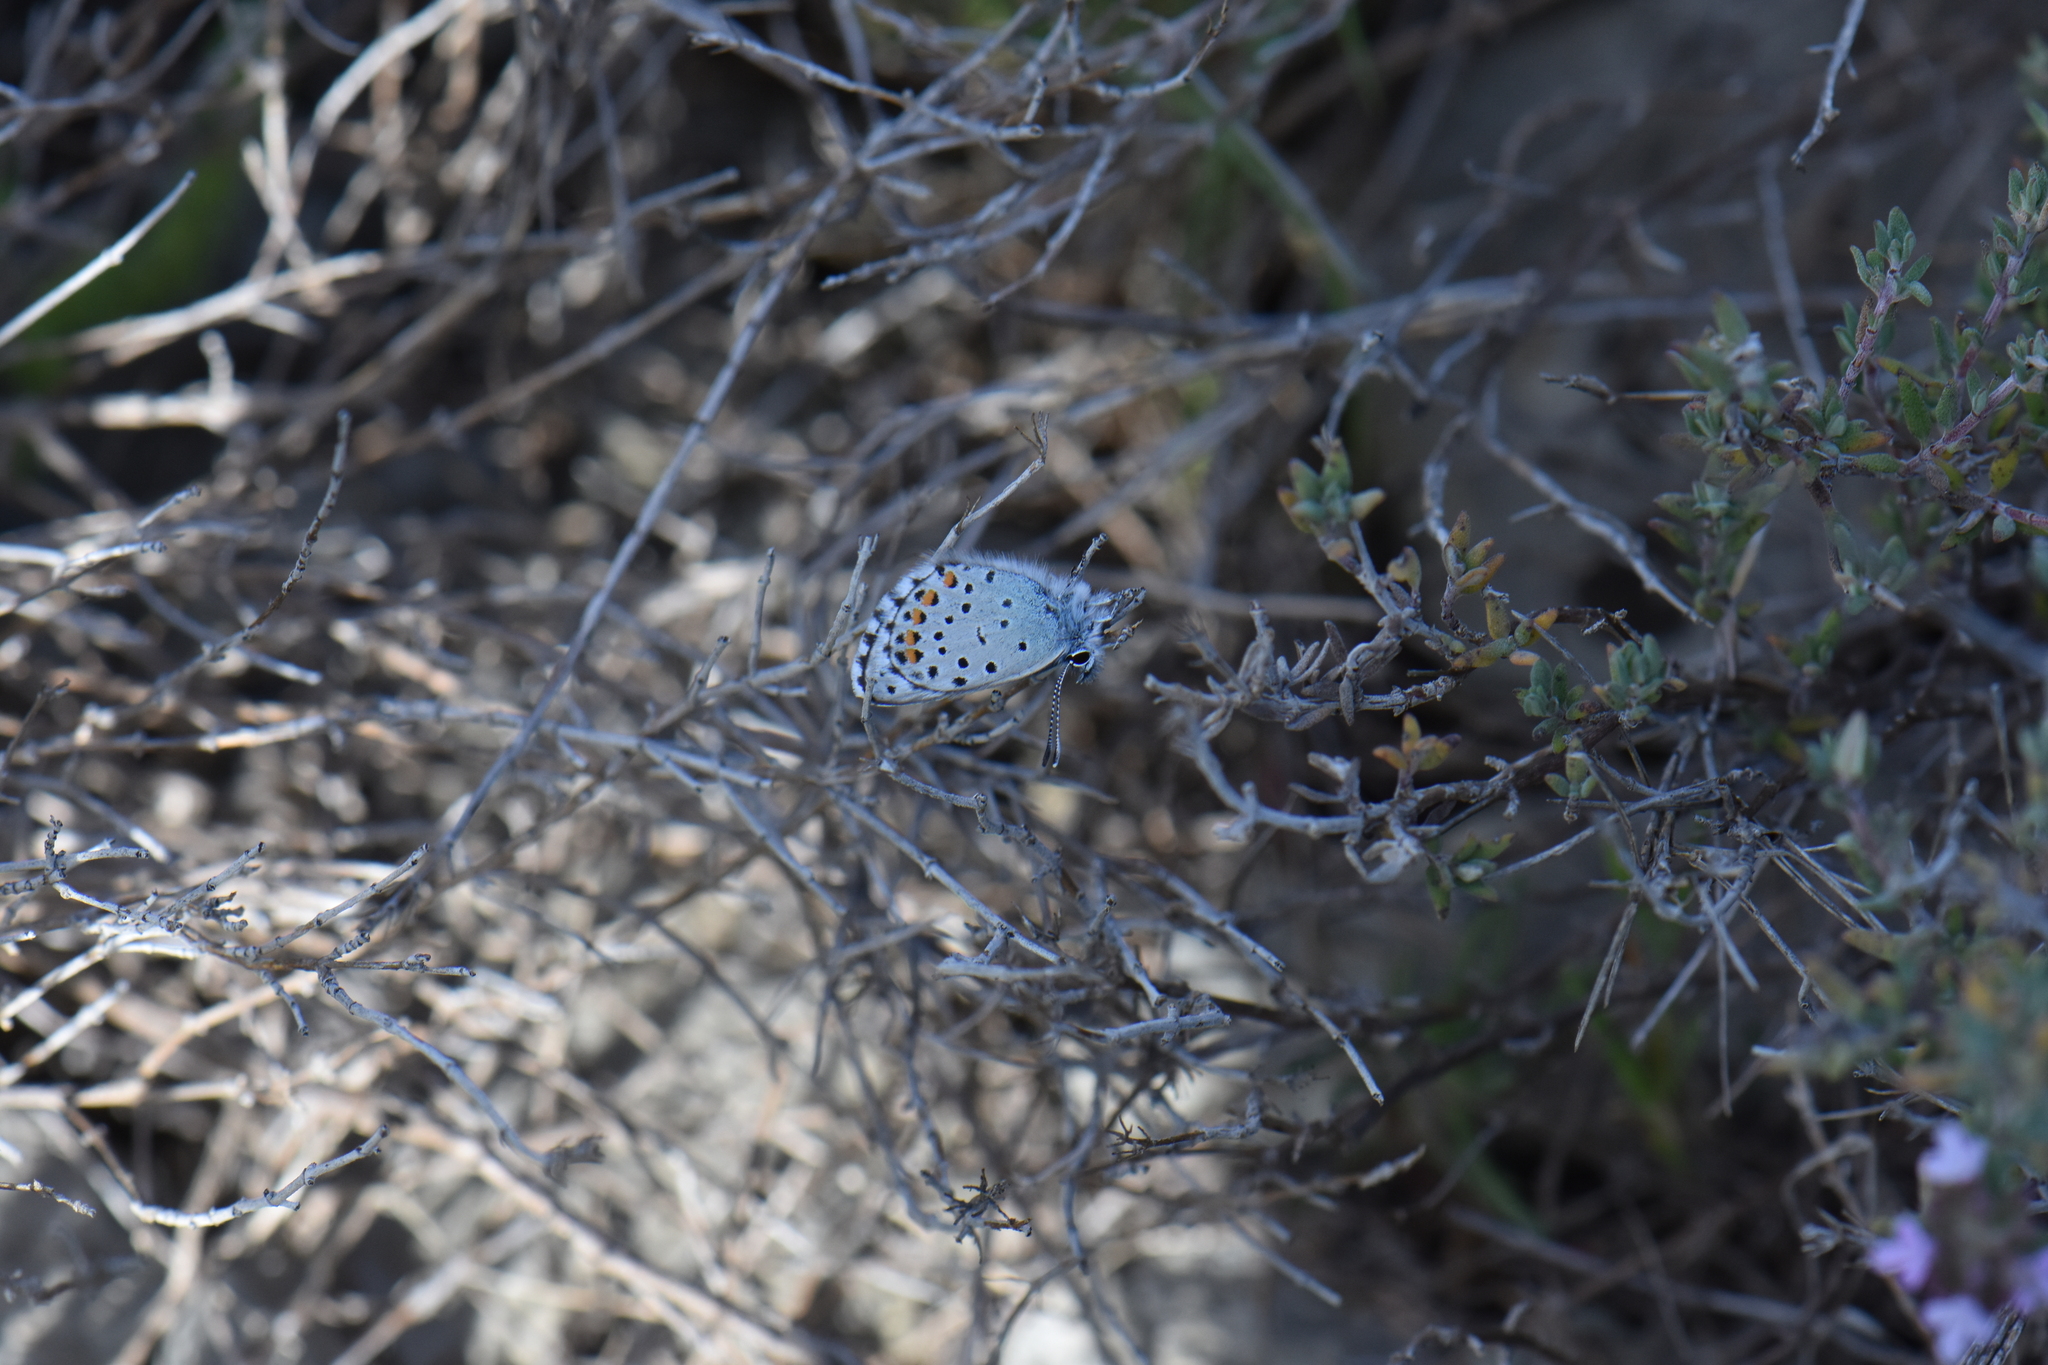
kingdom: Animalia
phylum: Arthropoda
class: Insecta
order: Lepidoptera
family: Lycaenidae
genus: Pseudophilotes
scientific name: Pseudophilotes baton
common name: Baton blue
